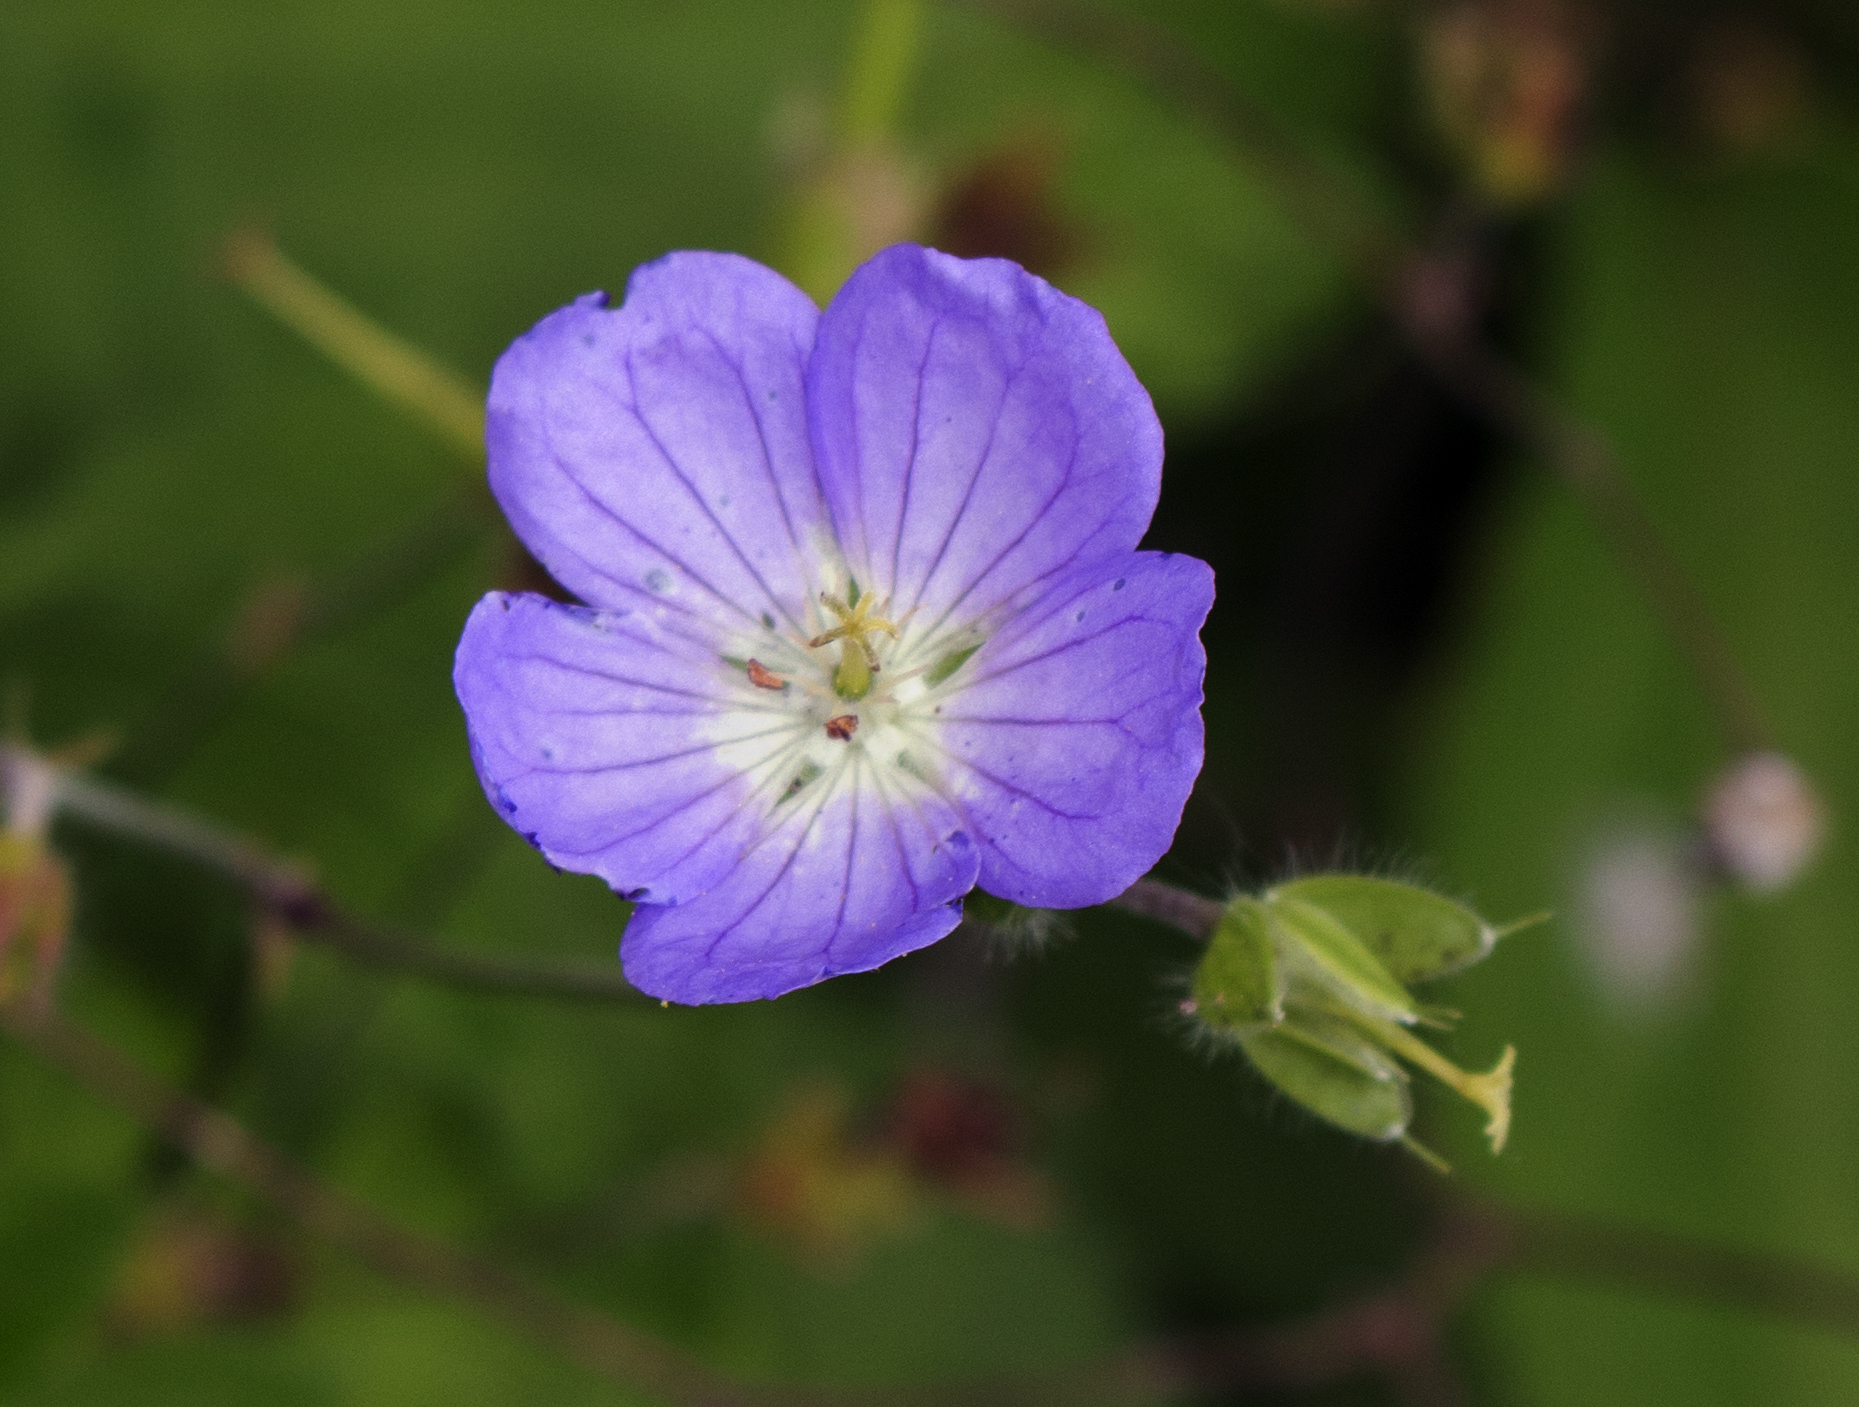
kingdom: Plantae
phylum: Tracheophyta
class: Magnoliopsida
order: Geraniales
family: Geraniaceae
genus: Geranium
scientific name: Geranium maculatum
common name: Spotted geranium
